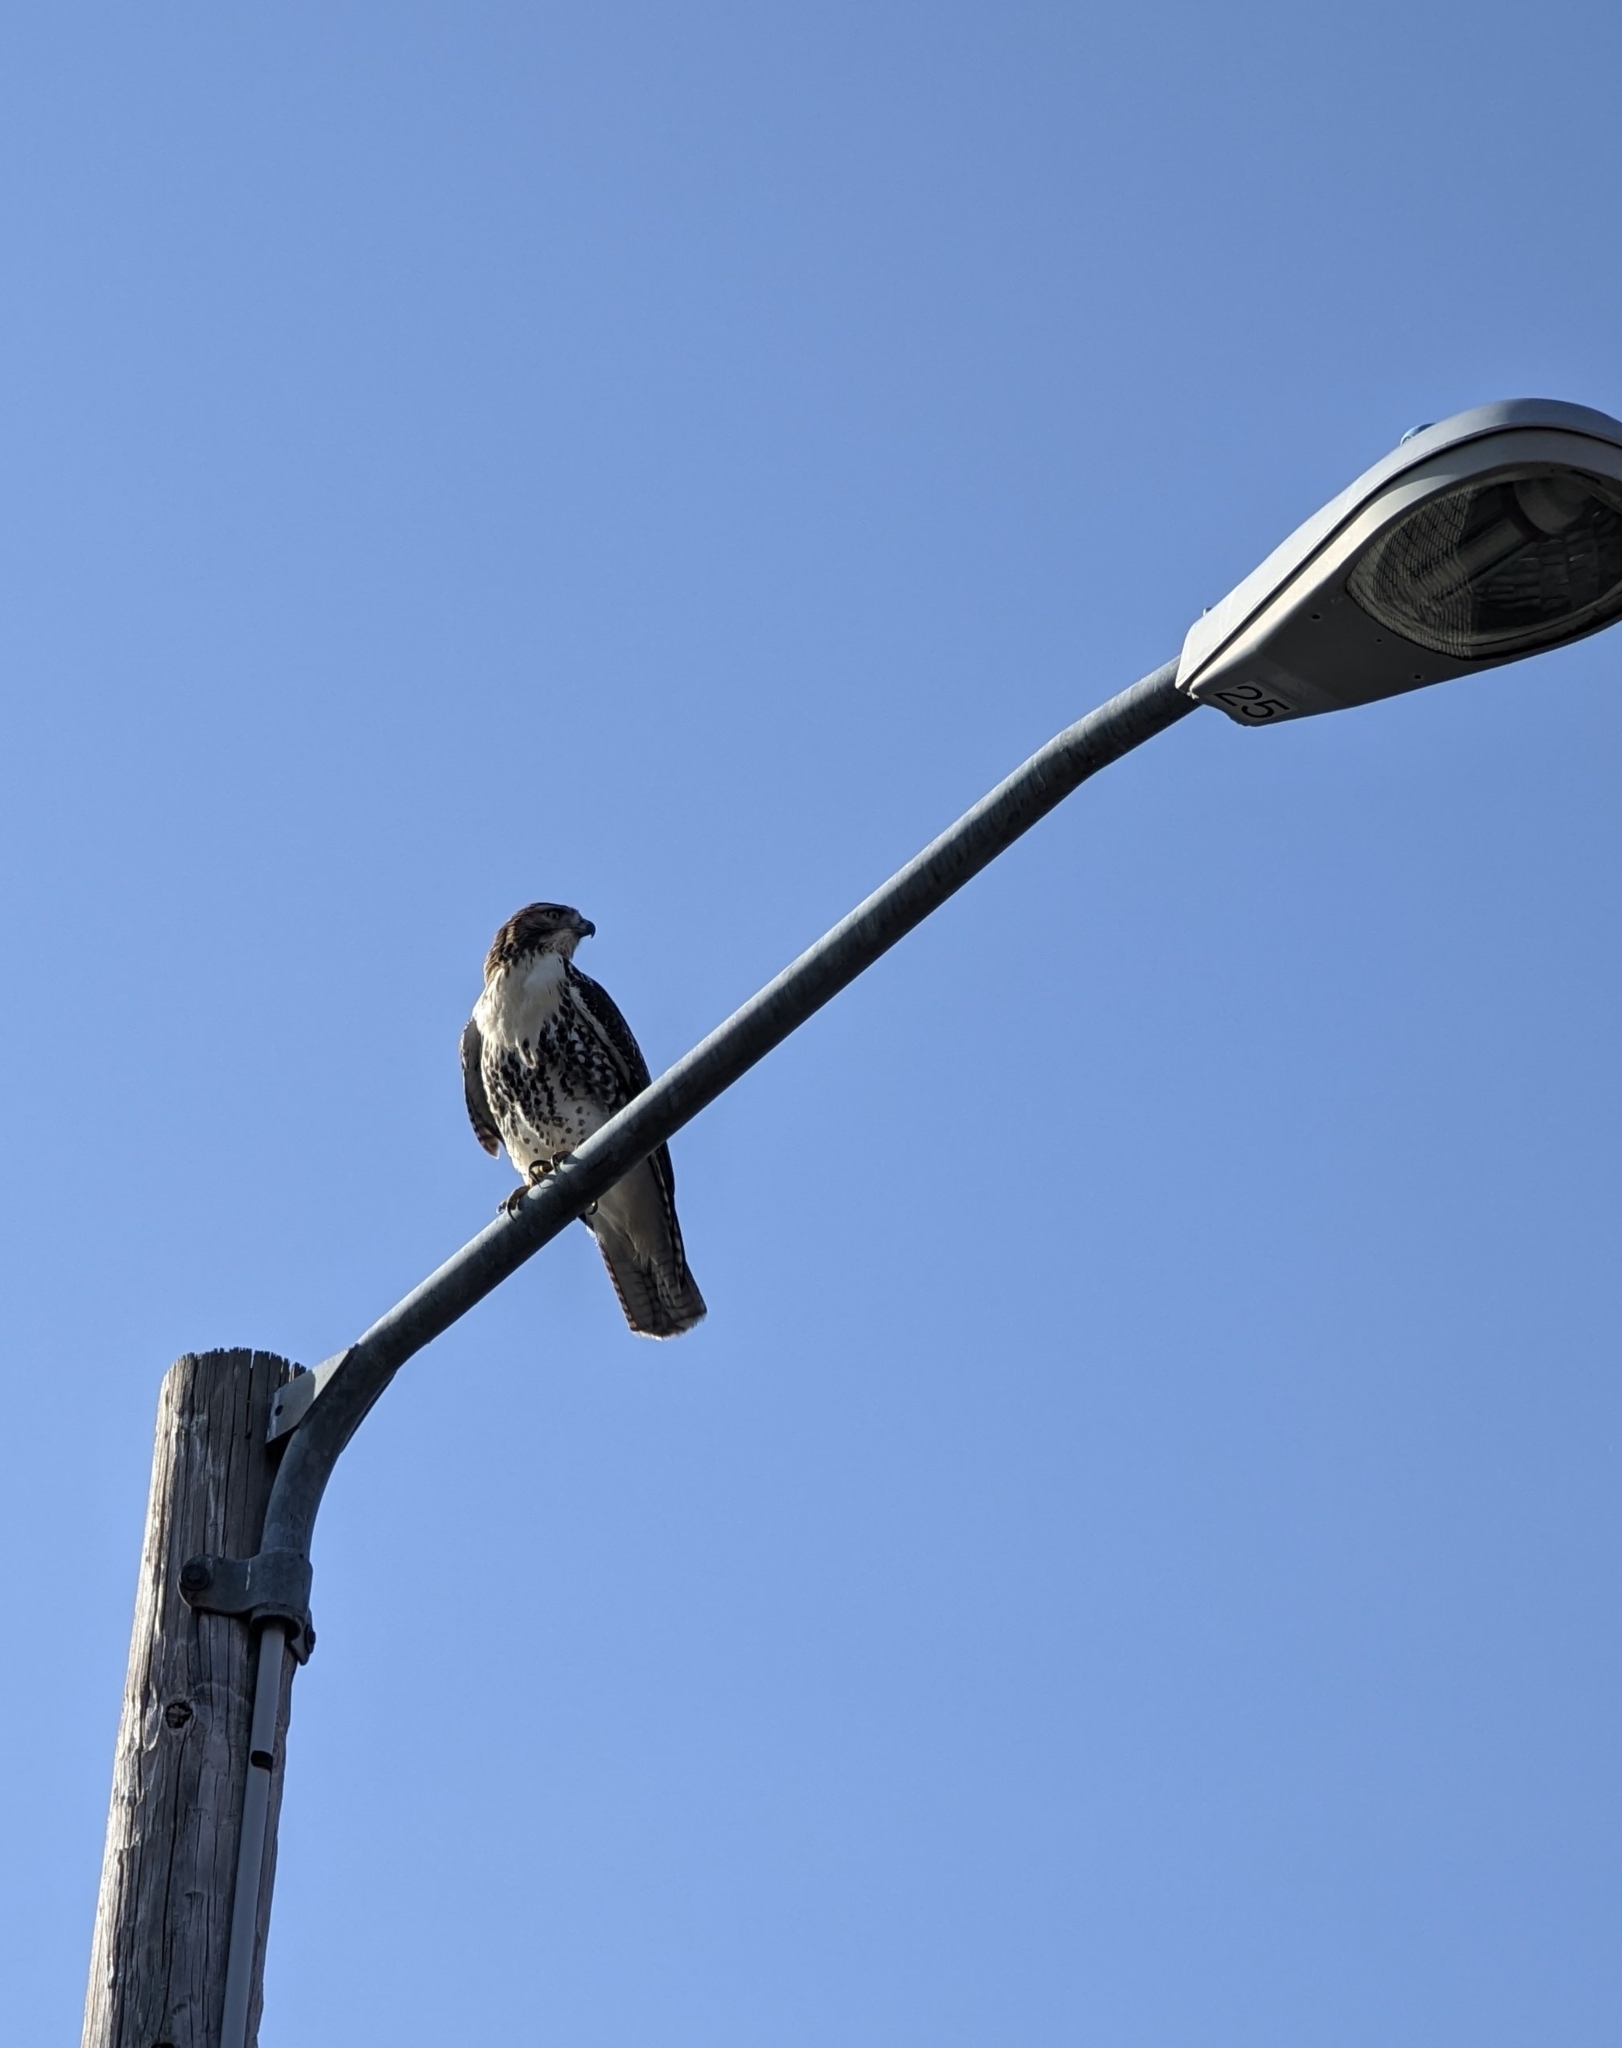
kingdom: Animalia
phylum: Chordata
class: Aves
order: Accipitriformes
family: Accipitridae
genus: Buteo
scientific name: Buteo jamaicensis
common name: Red-tailed hawk
